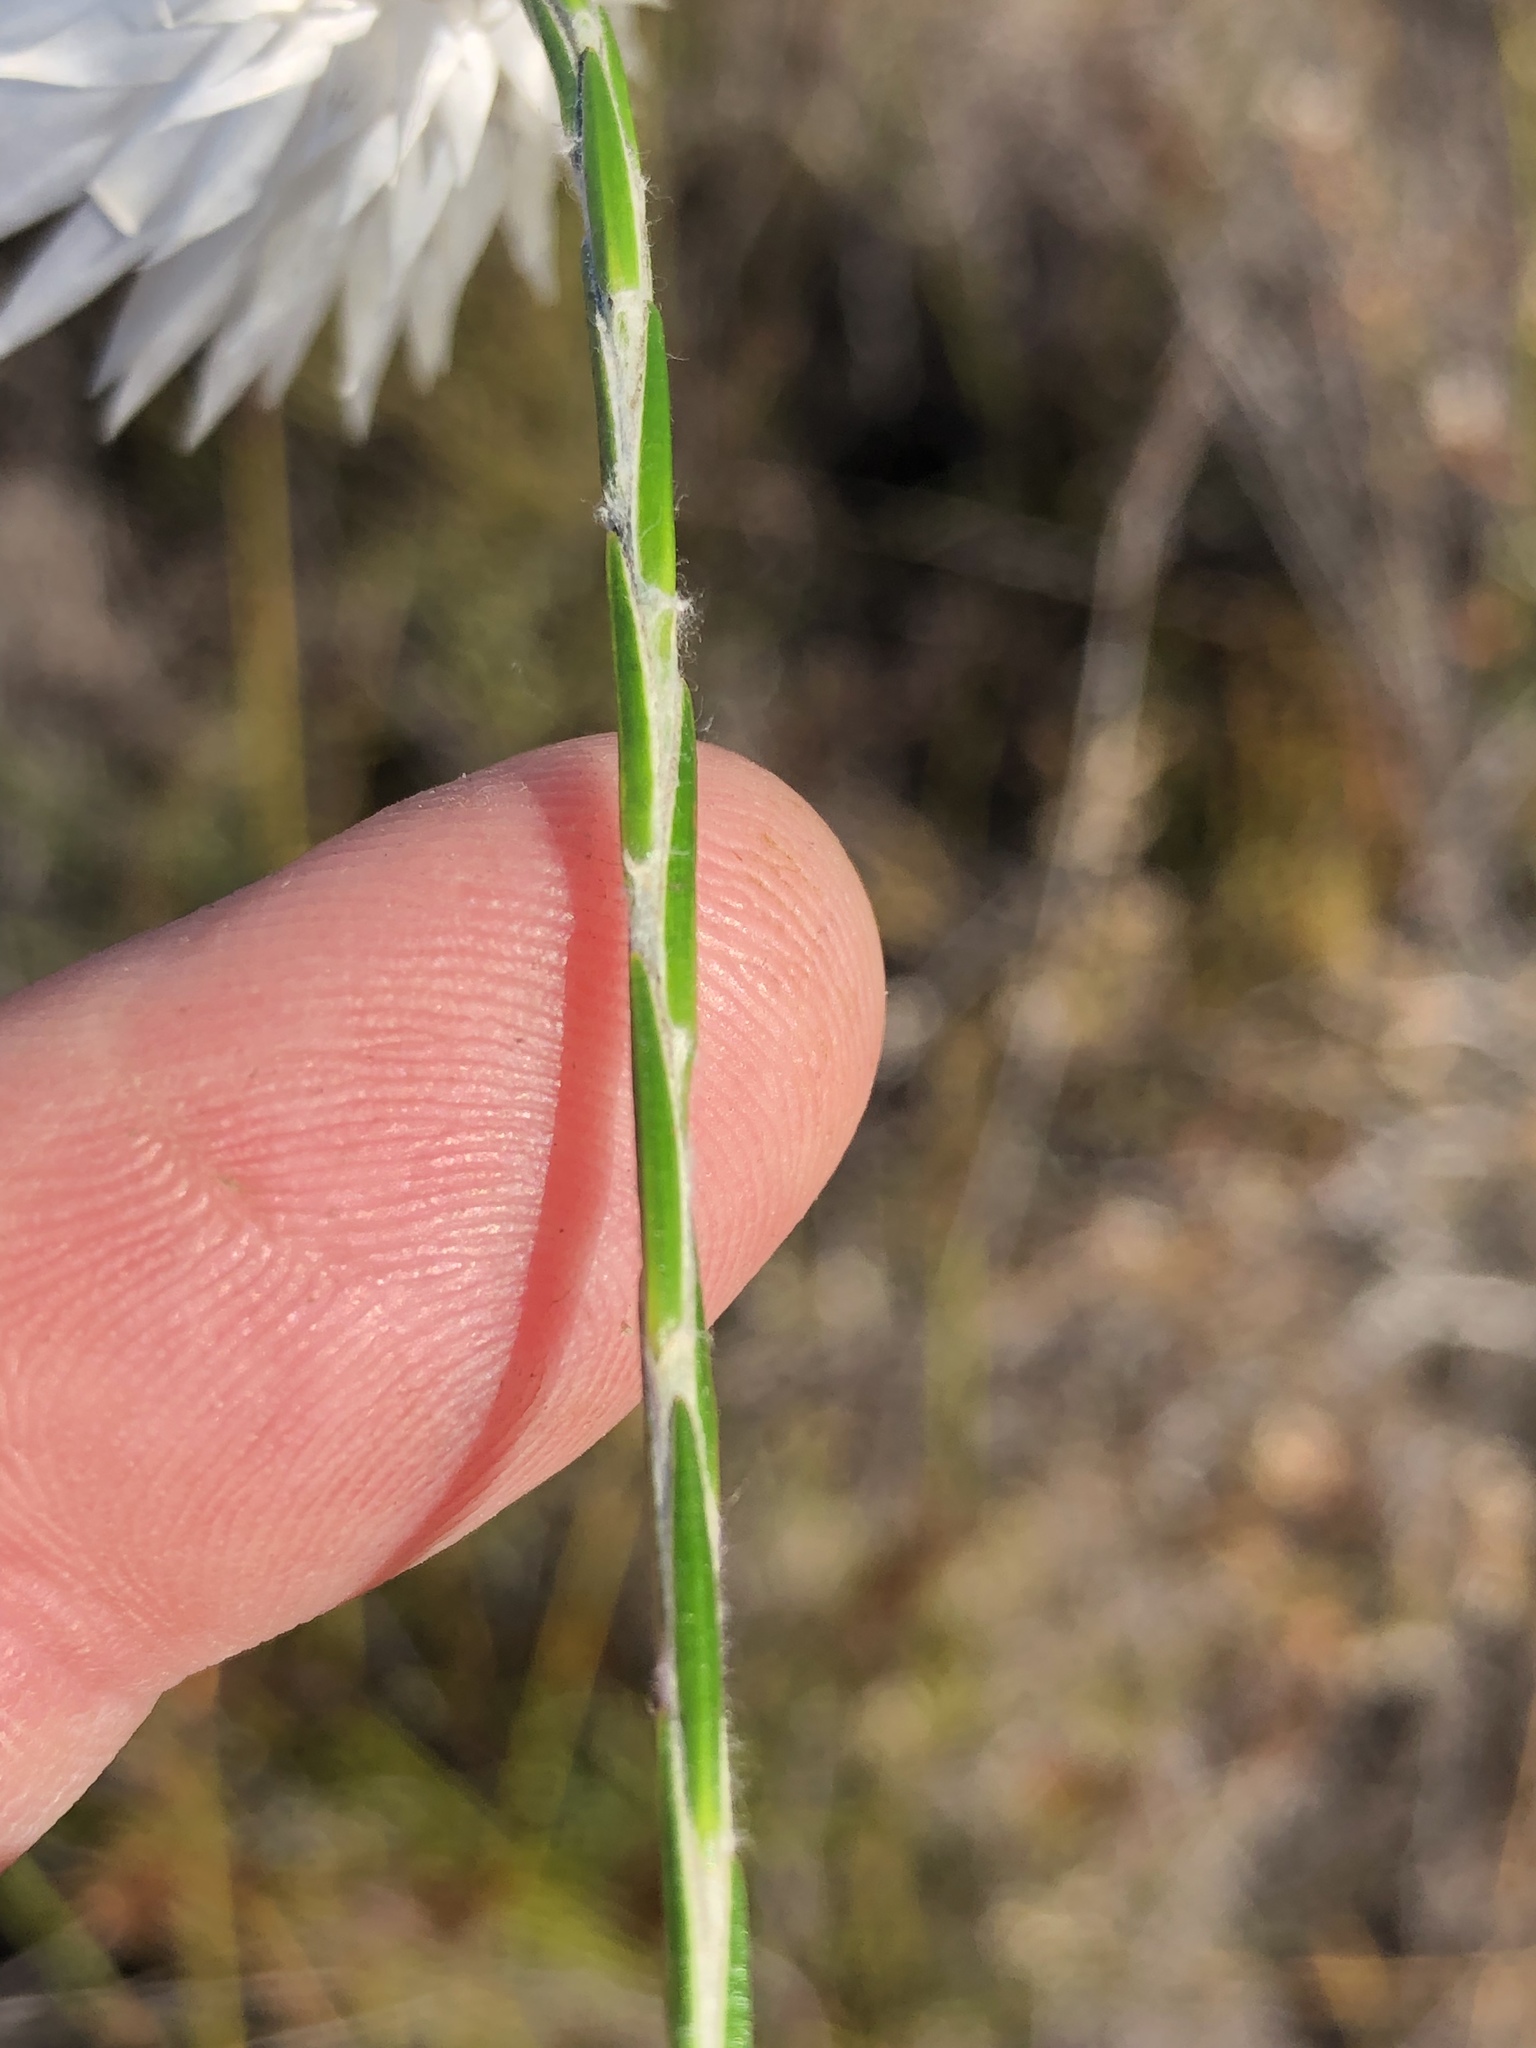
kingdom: Plantae
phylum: Tracheophyta
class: Magnoliopsida
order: Asterales
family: Asteraceae
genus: Edmondia
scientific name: Edmondia sesamoides
